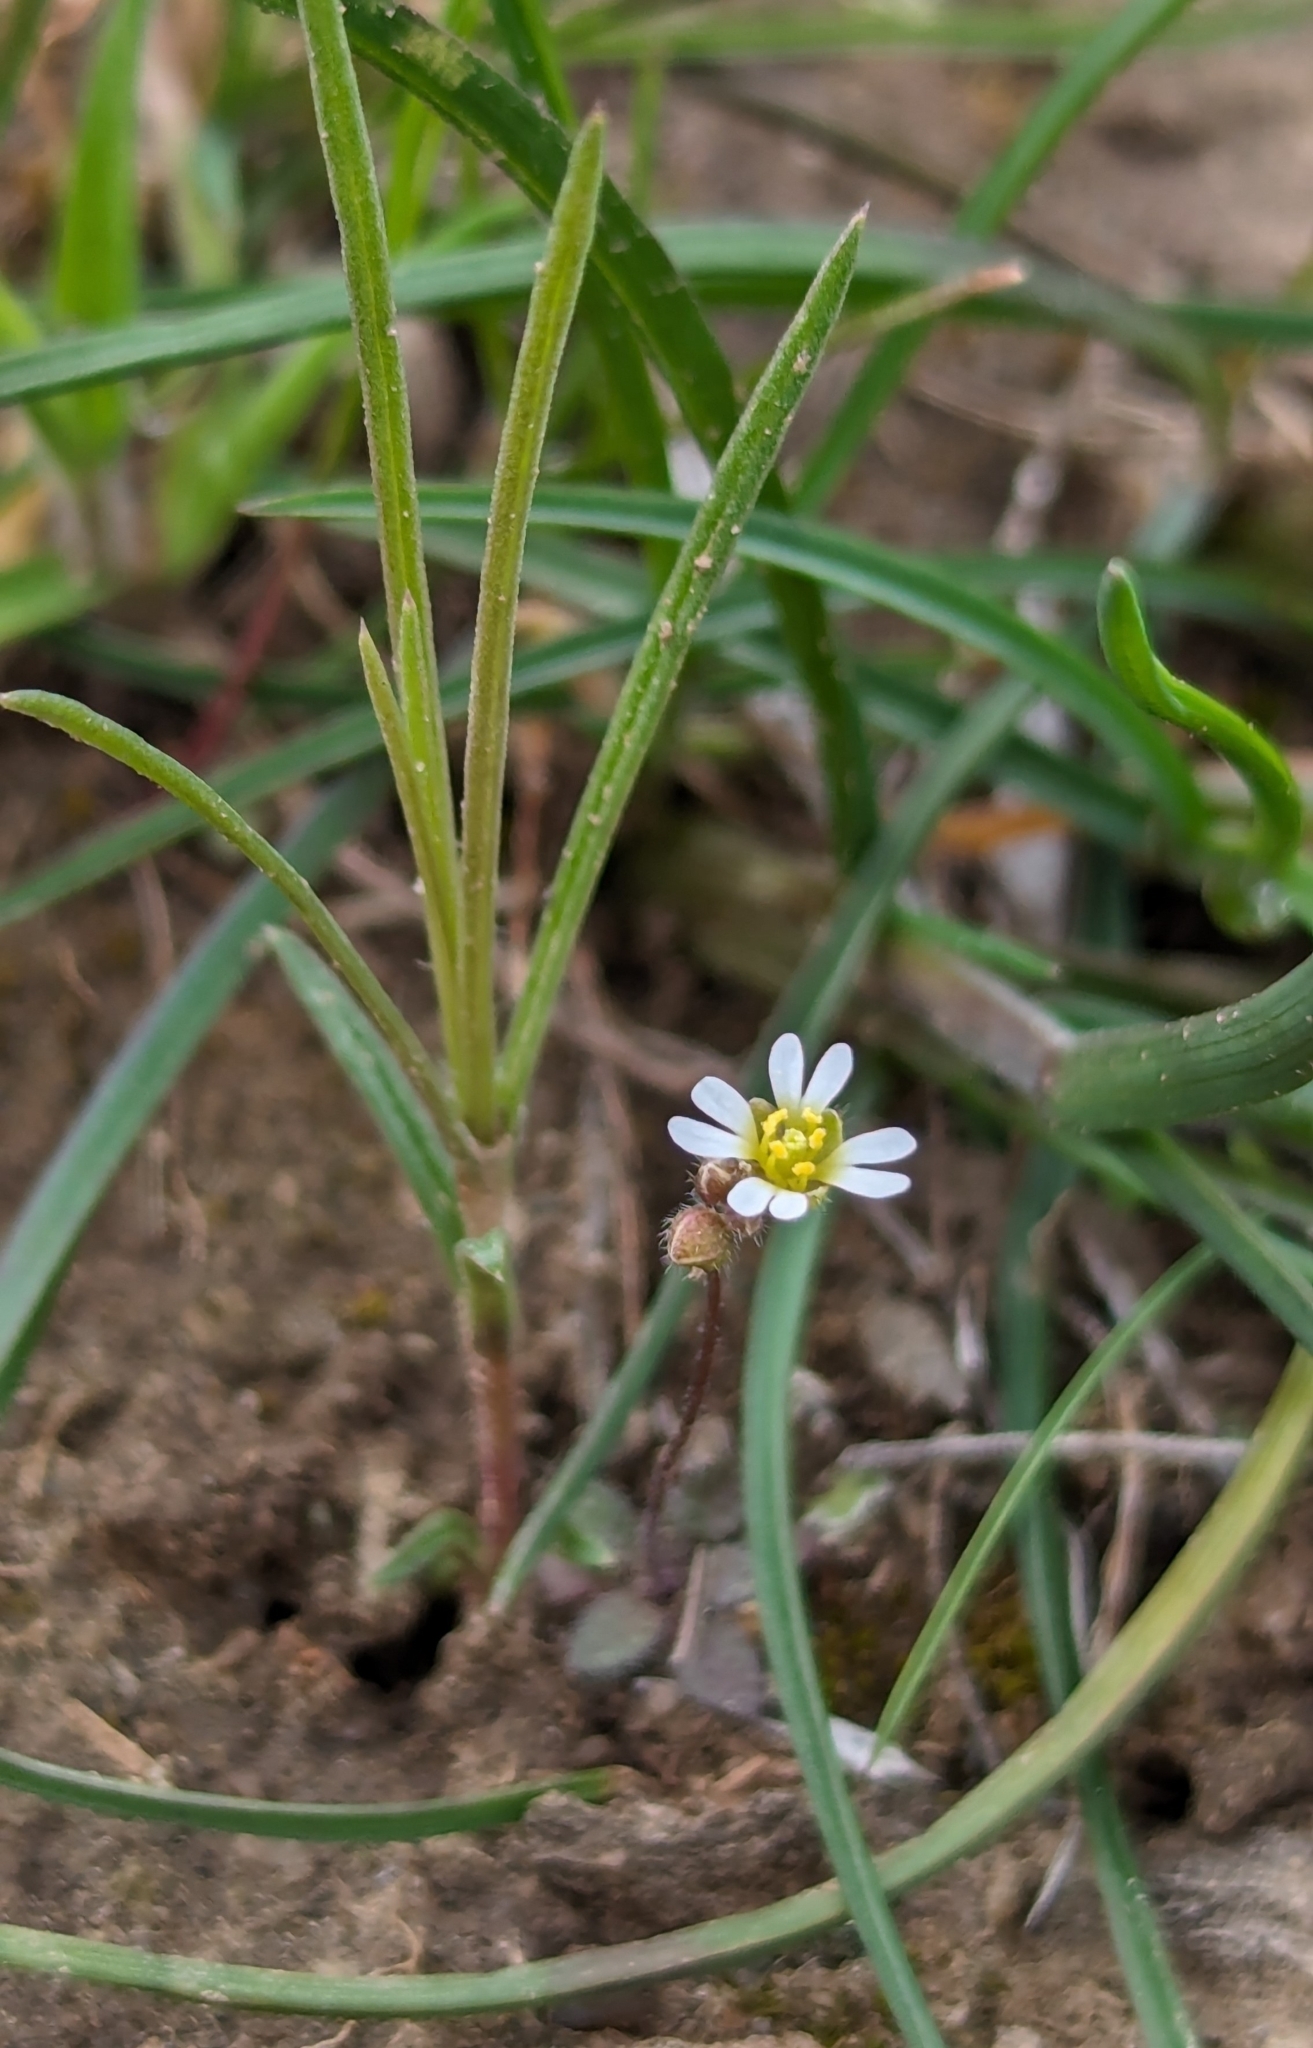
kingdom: Plantae
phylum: Tracheophyta
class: Magnoliopsida
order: Brassicales
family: Brassicaceae
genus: Draba
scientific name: Draba verna
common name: Spring draba
